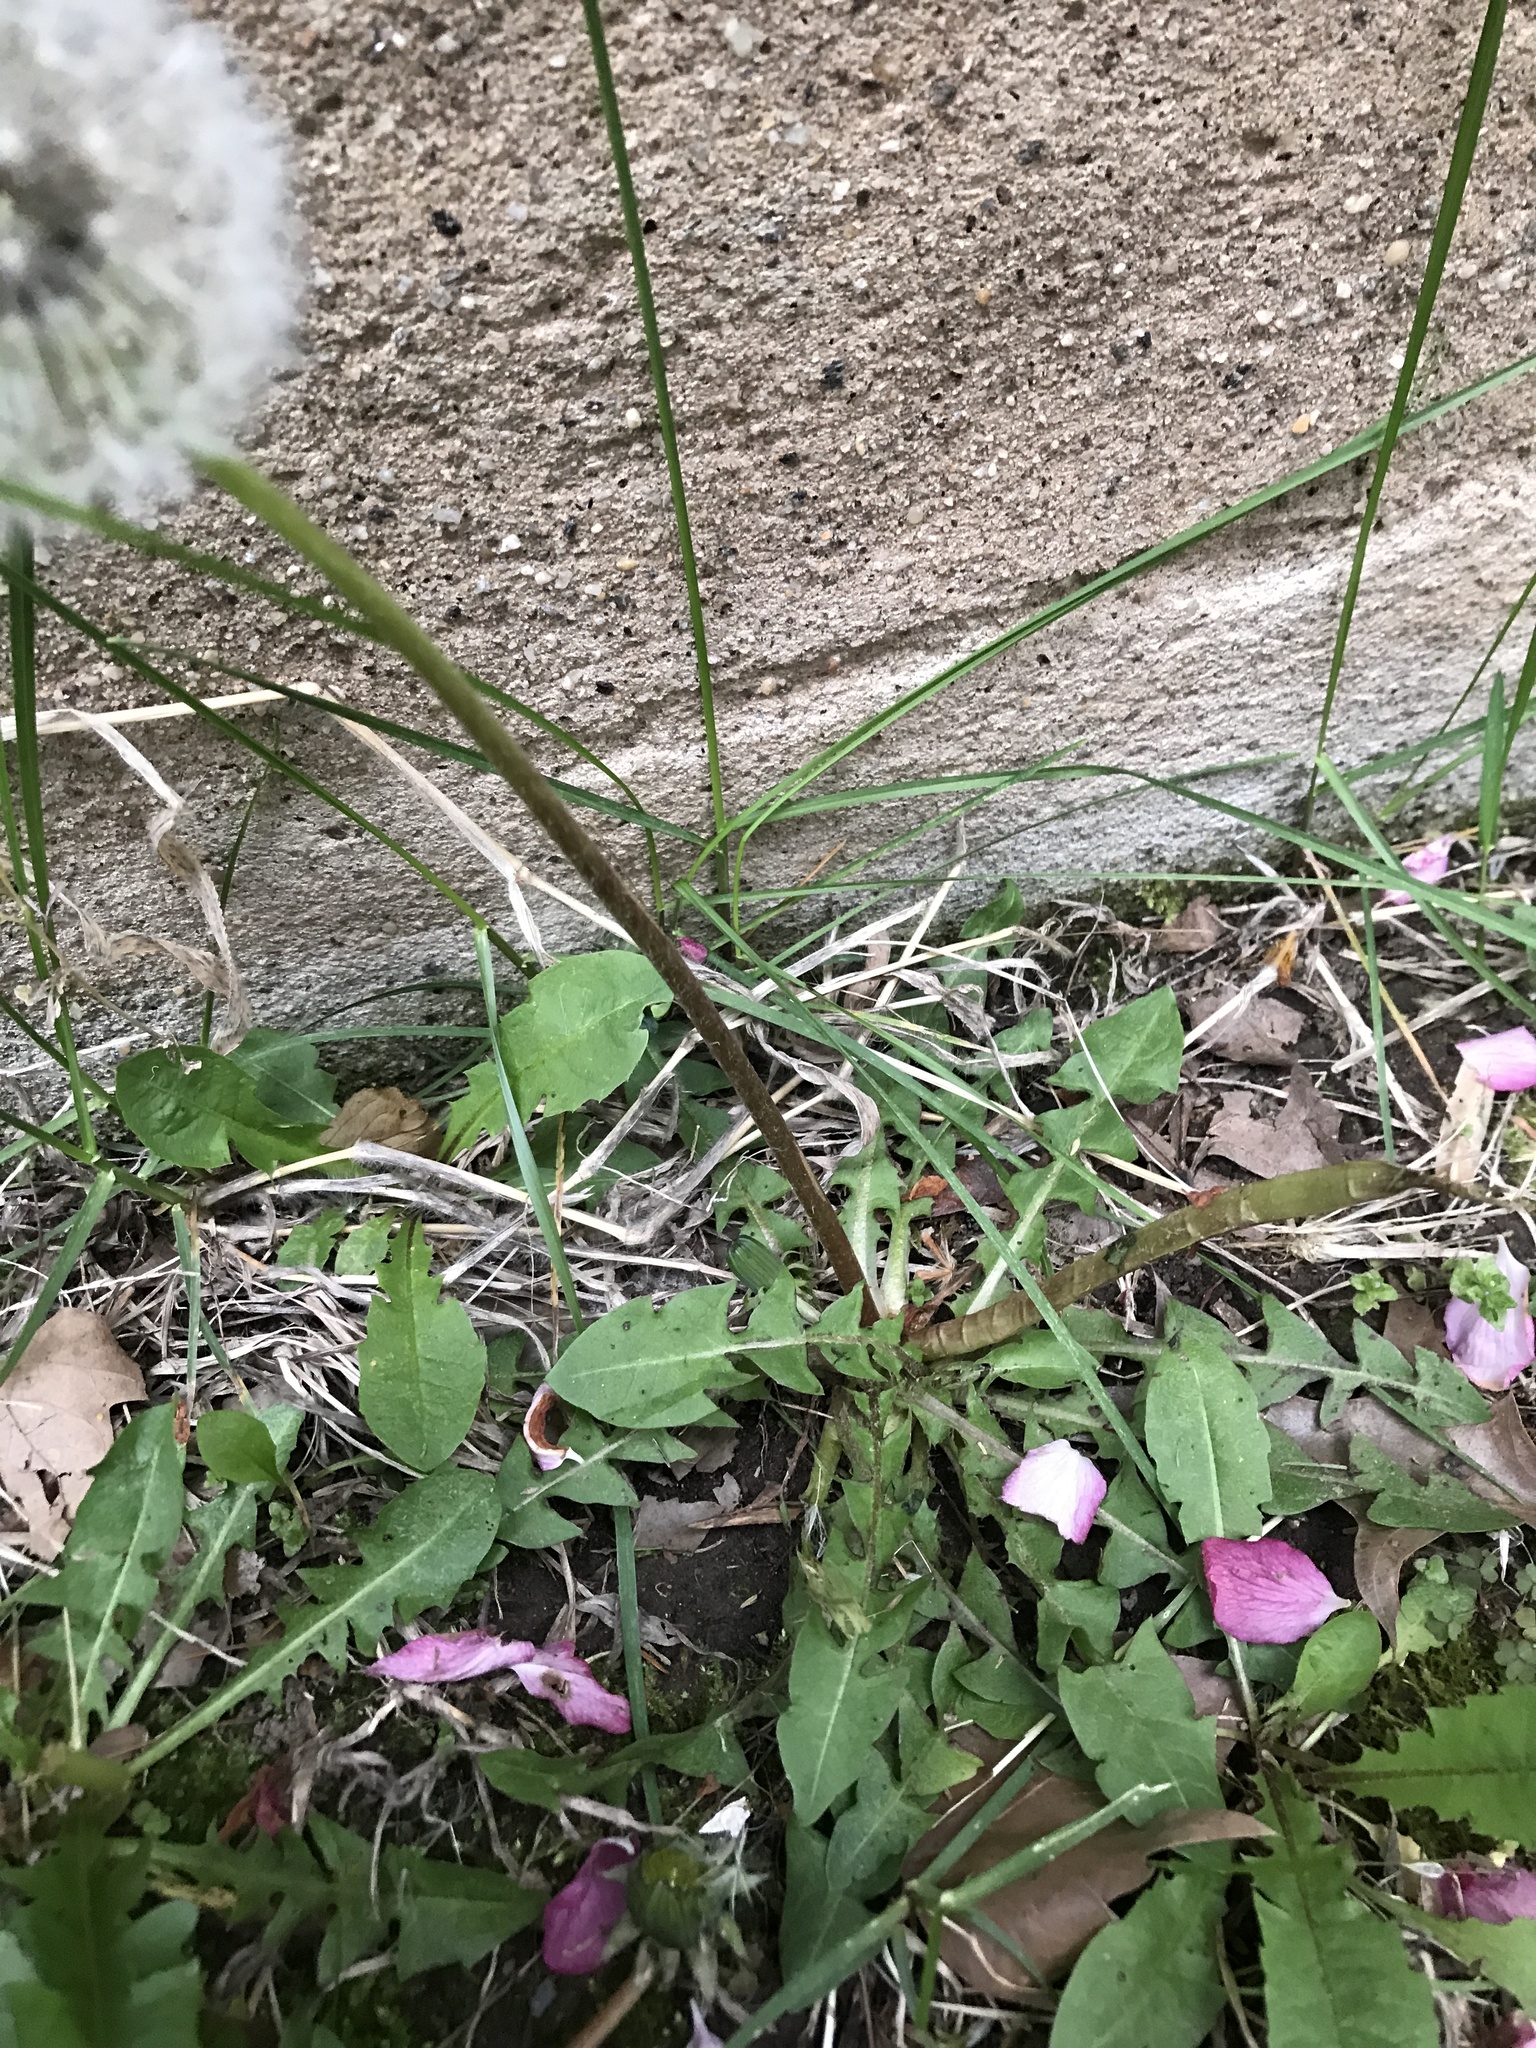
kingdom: Plantae
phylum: Tracheophyta
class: Magnoliopsida
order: Asterales
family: Asteraceae
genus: Taraxacum
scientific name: Taraxacum officinale
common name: Common dandelion
